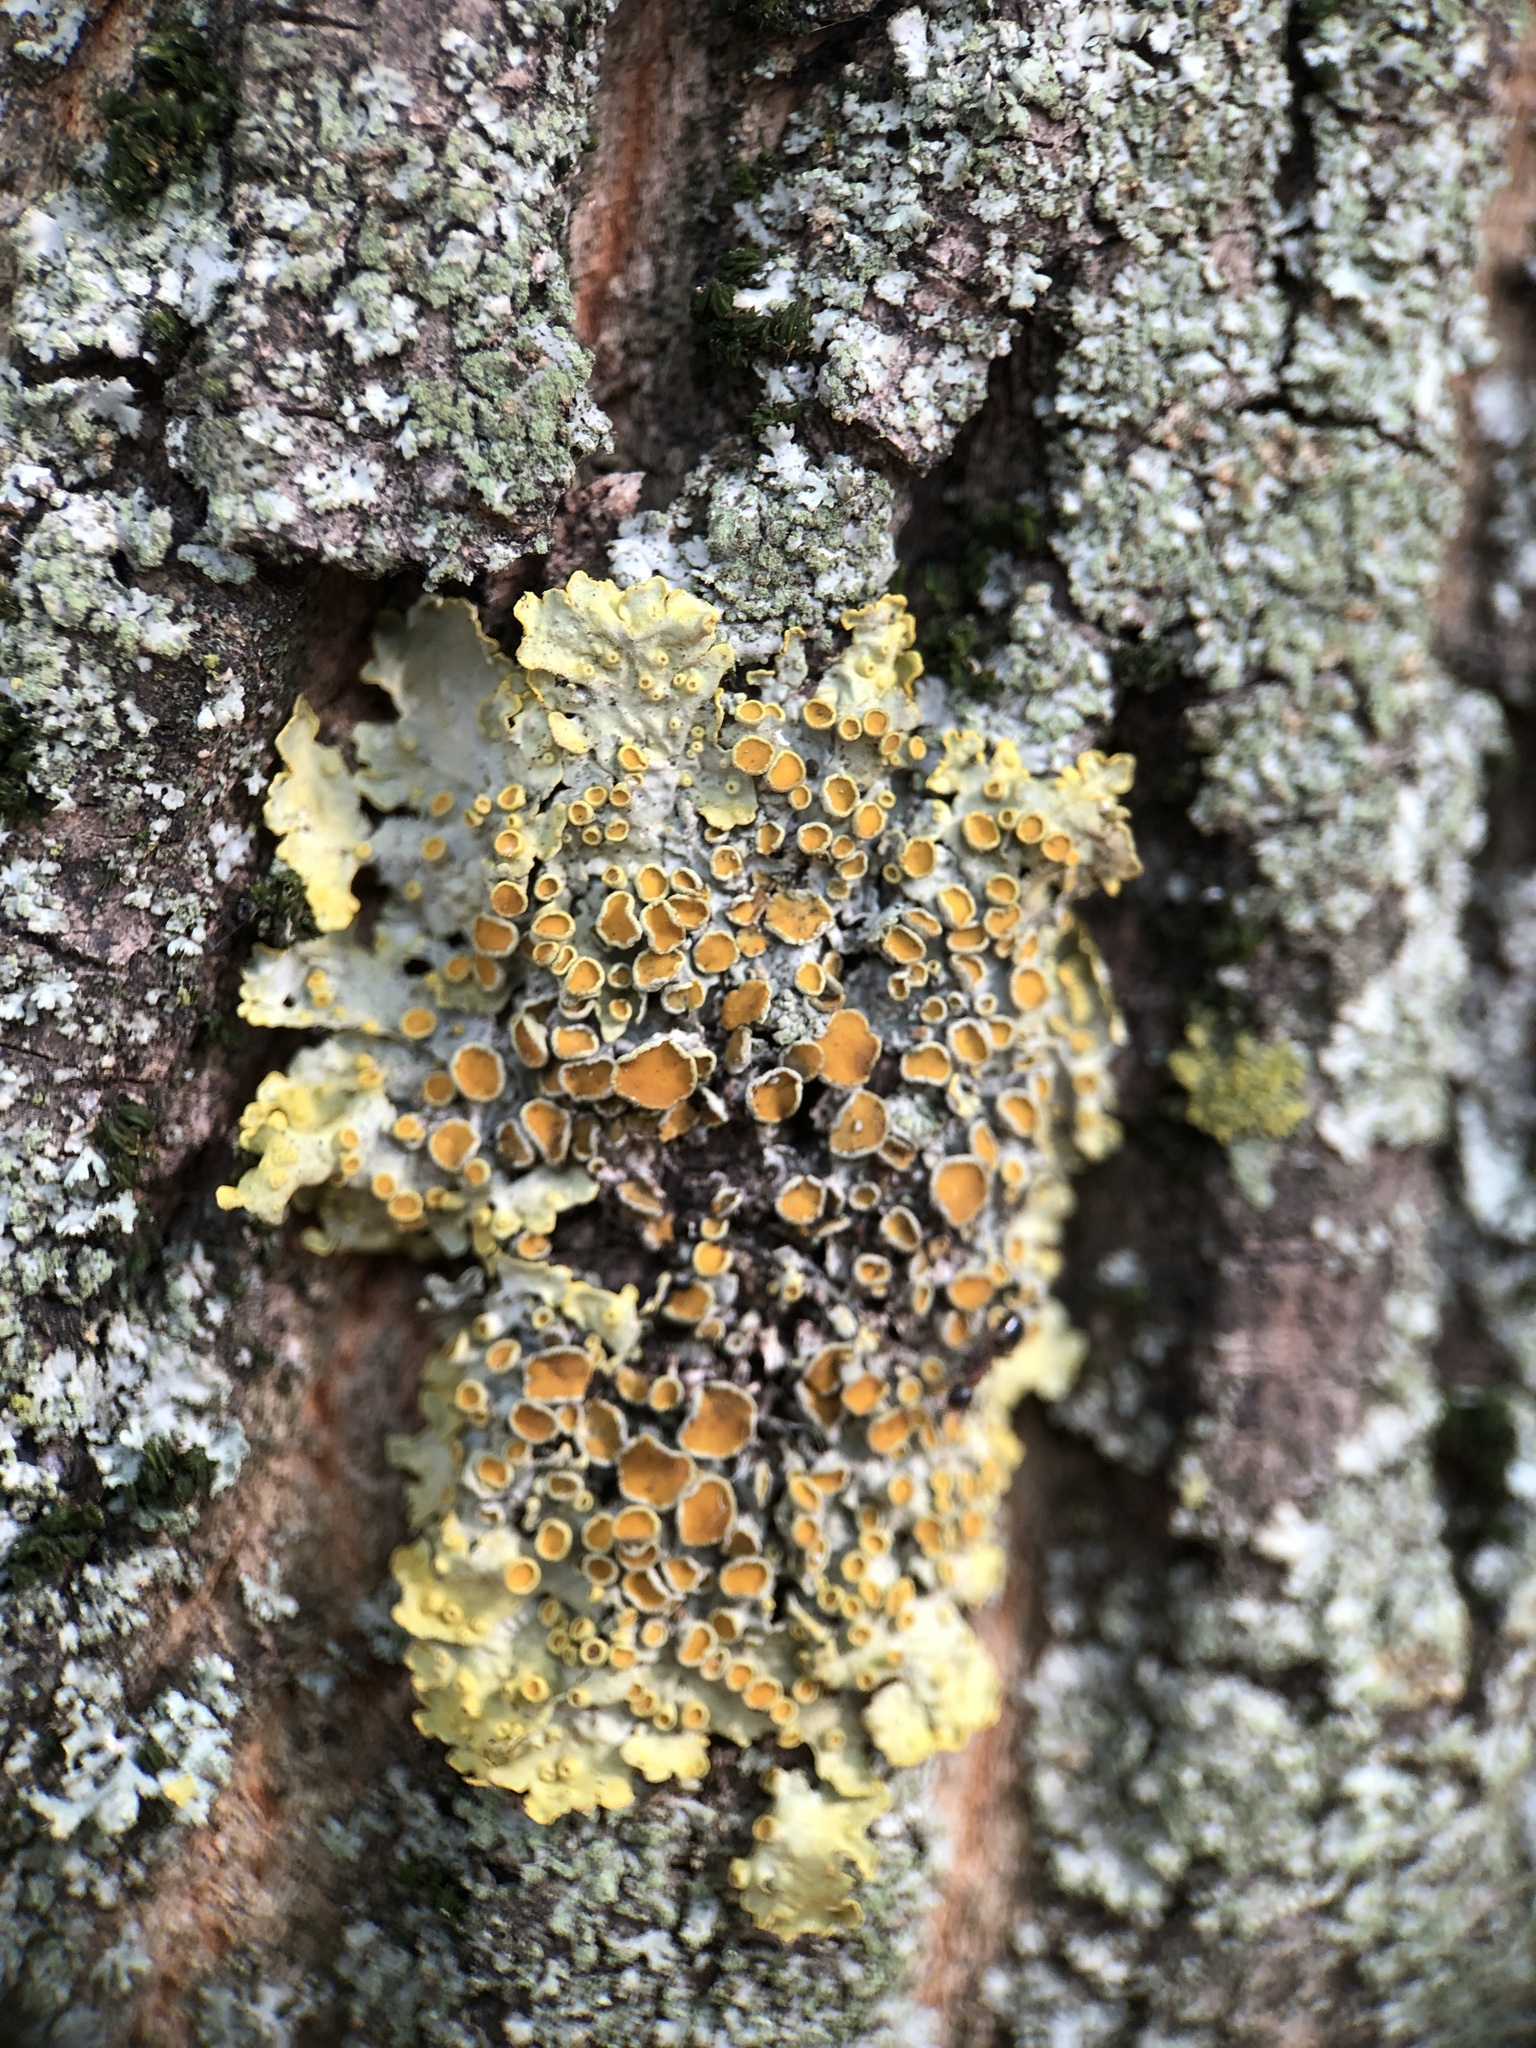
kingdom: Fungi
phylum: Ascomycota
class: Lecanoromycetes
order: Teloschistales
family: Teloschistaceae
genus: Xanthoria
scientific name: Xanthoria parietina
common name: Common orange lichen
